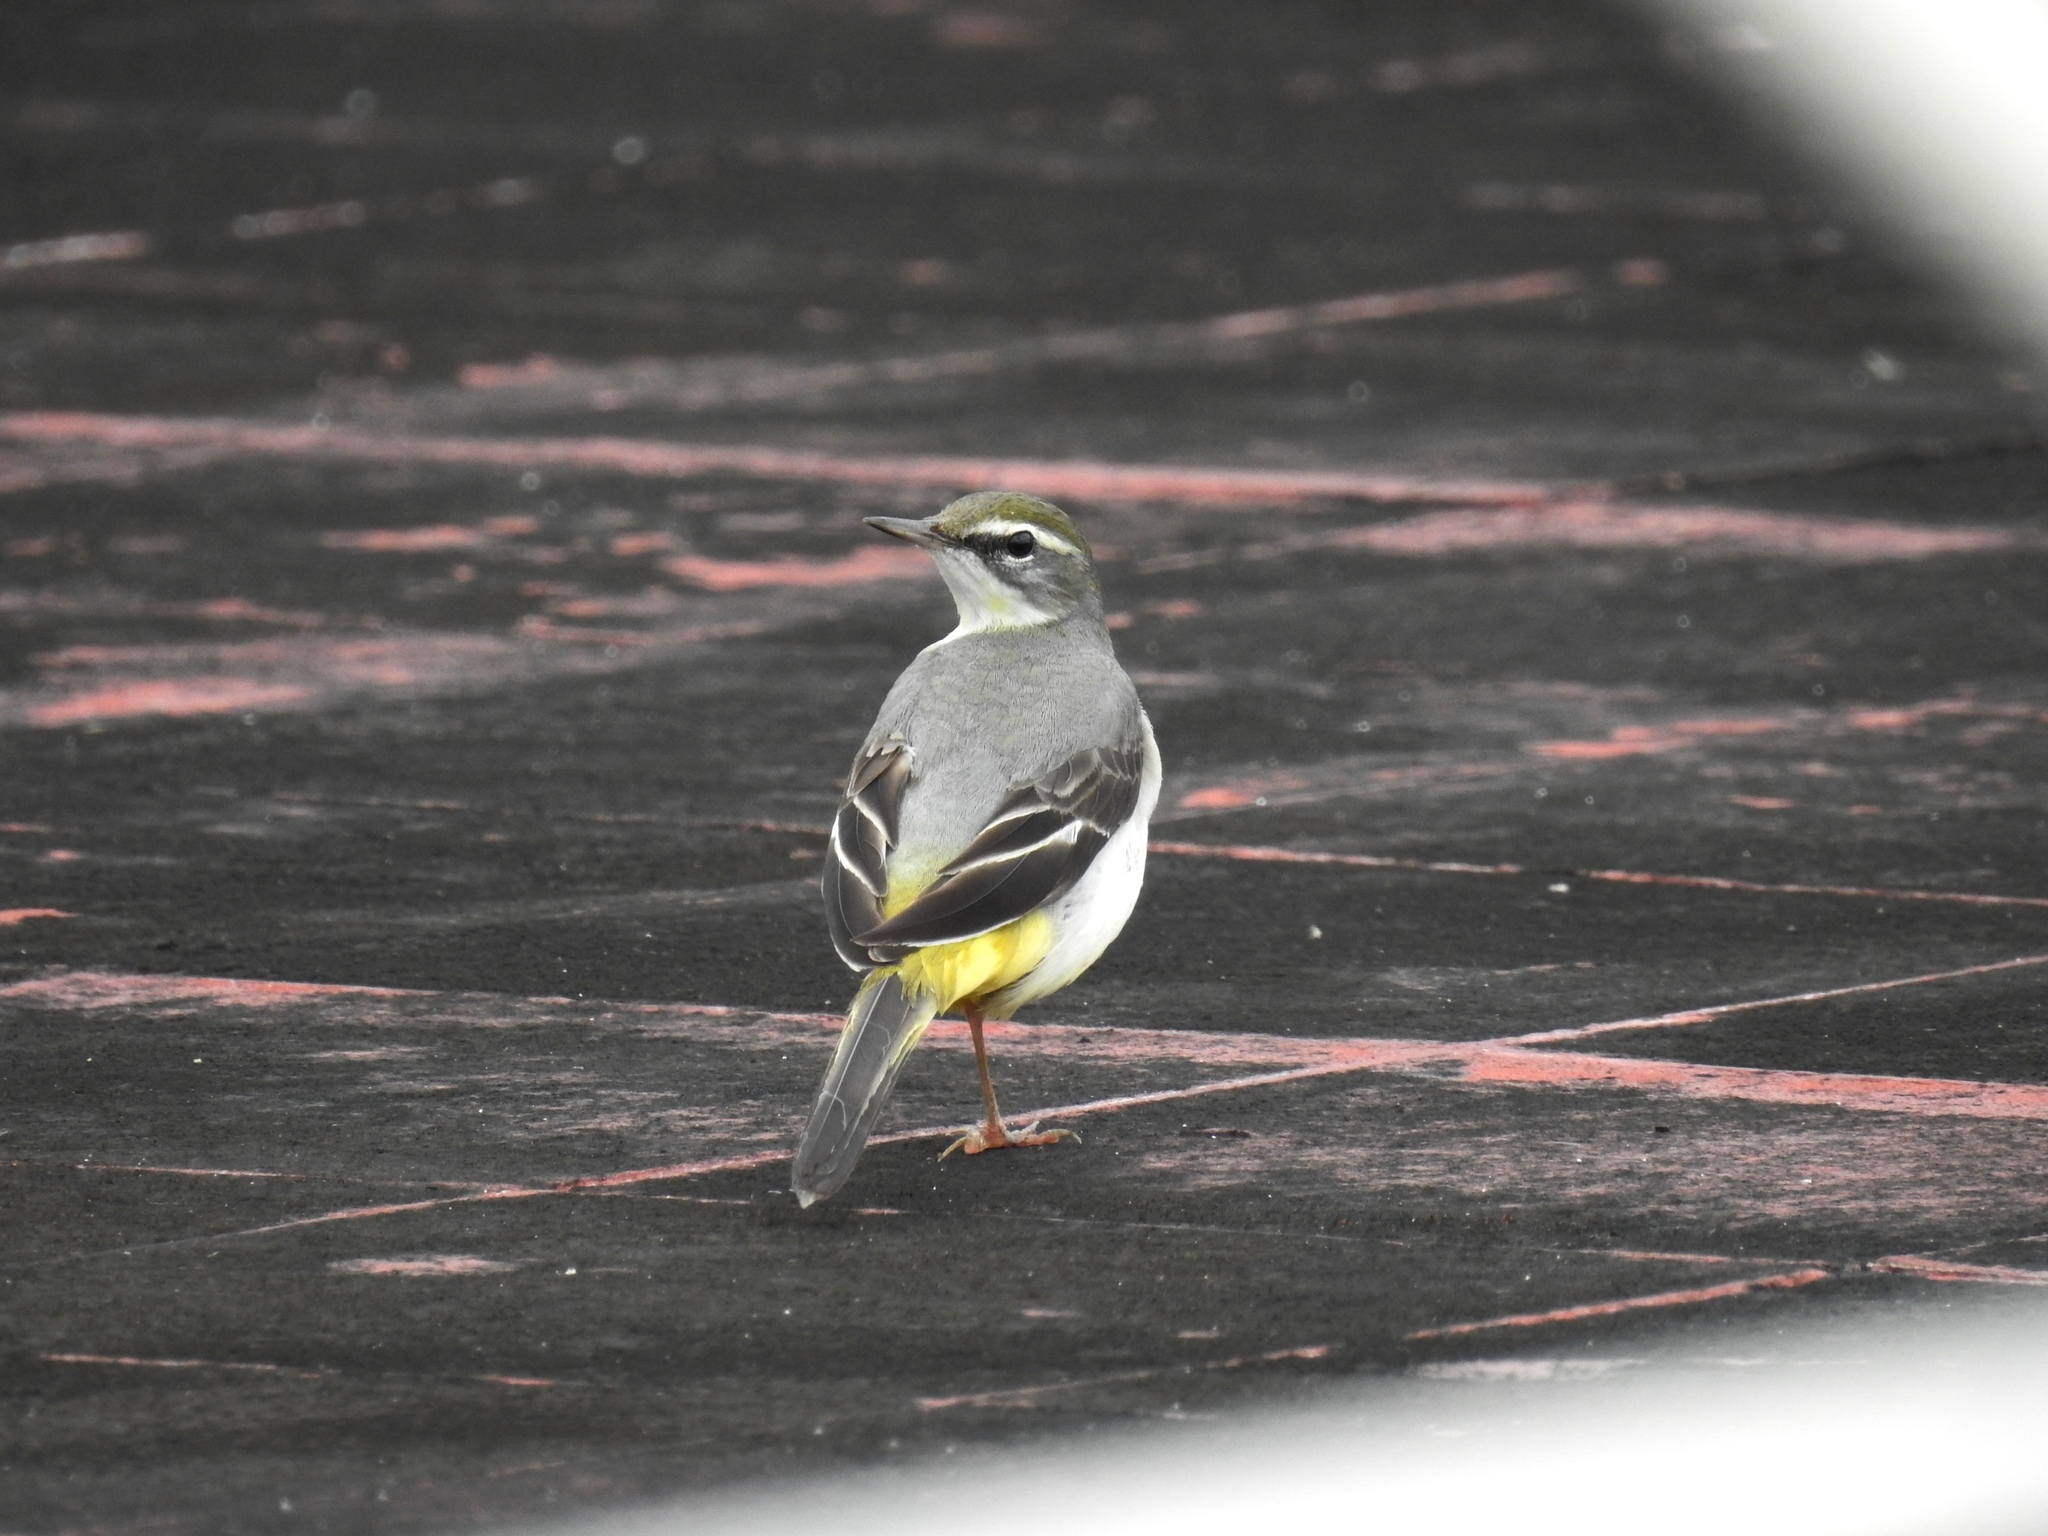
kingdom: Animalia
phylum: Chordata
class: Aves
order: Passeriformes
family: Motacillidae
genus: Motacilla
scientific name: Motacilla cinerea
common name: Grey wagtail
